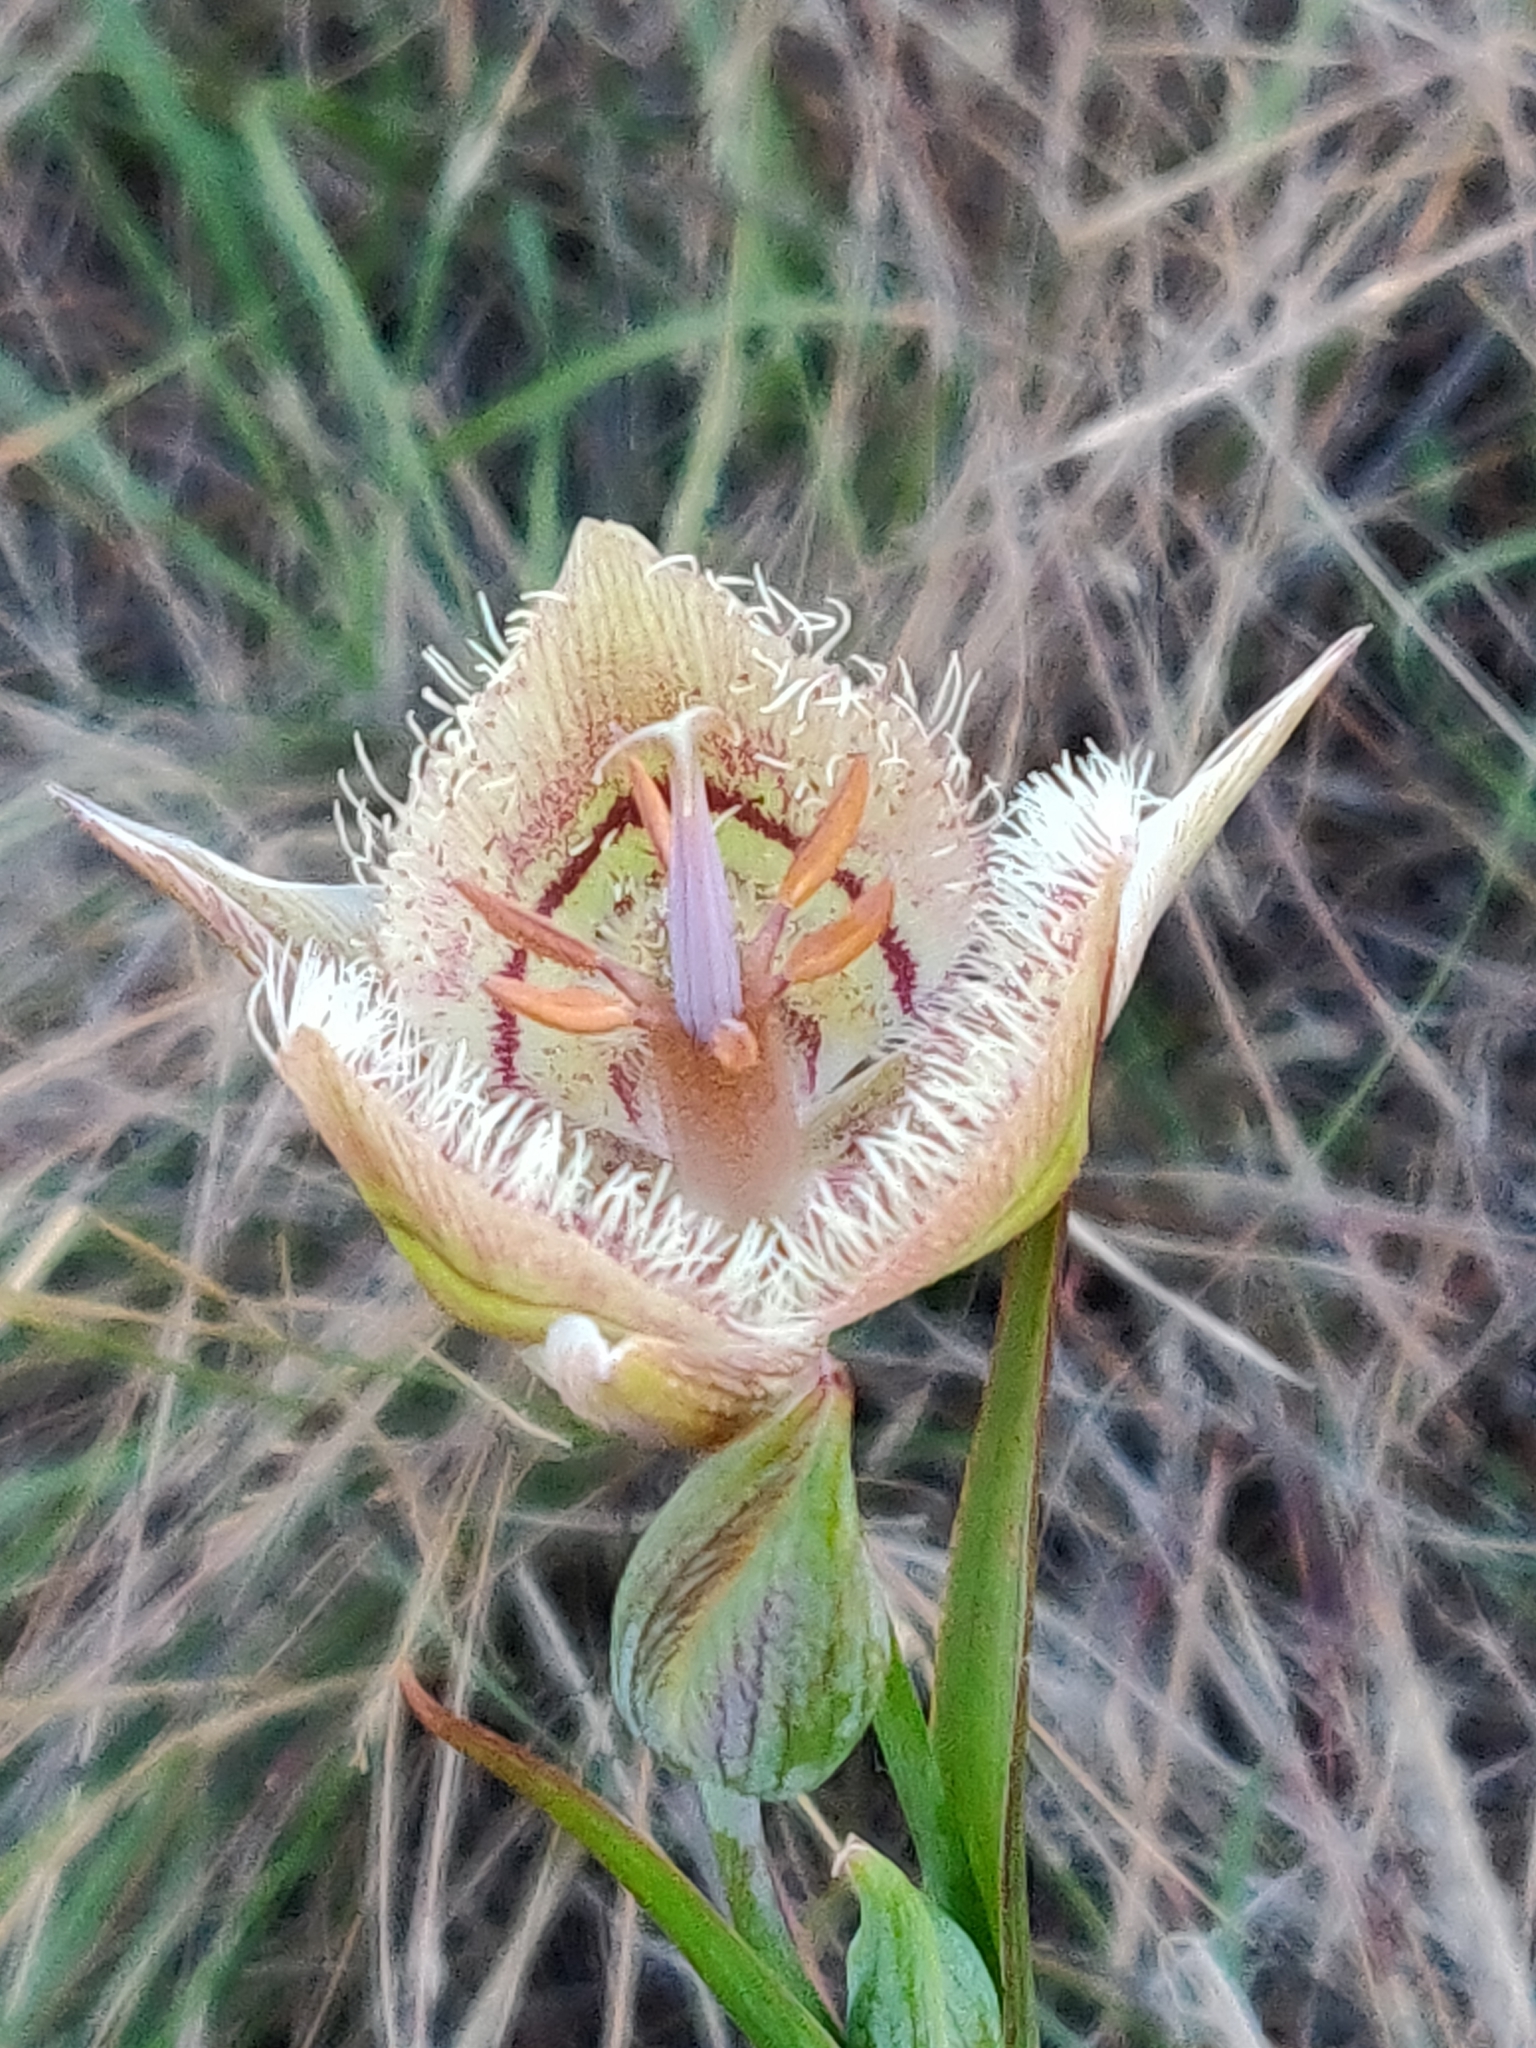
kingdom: Plantae
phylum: Tracheophyta
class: Liliopsida
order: Liliales
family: Liliaceae
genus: Calochortus
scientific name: Calochortus tiburonensis
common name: Tiburon mariposa-lily
